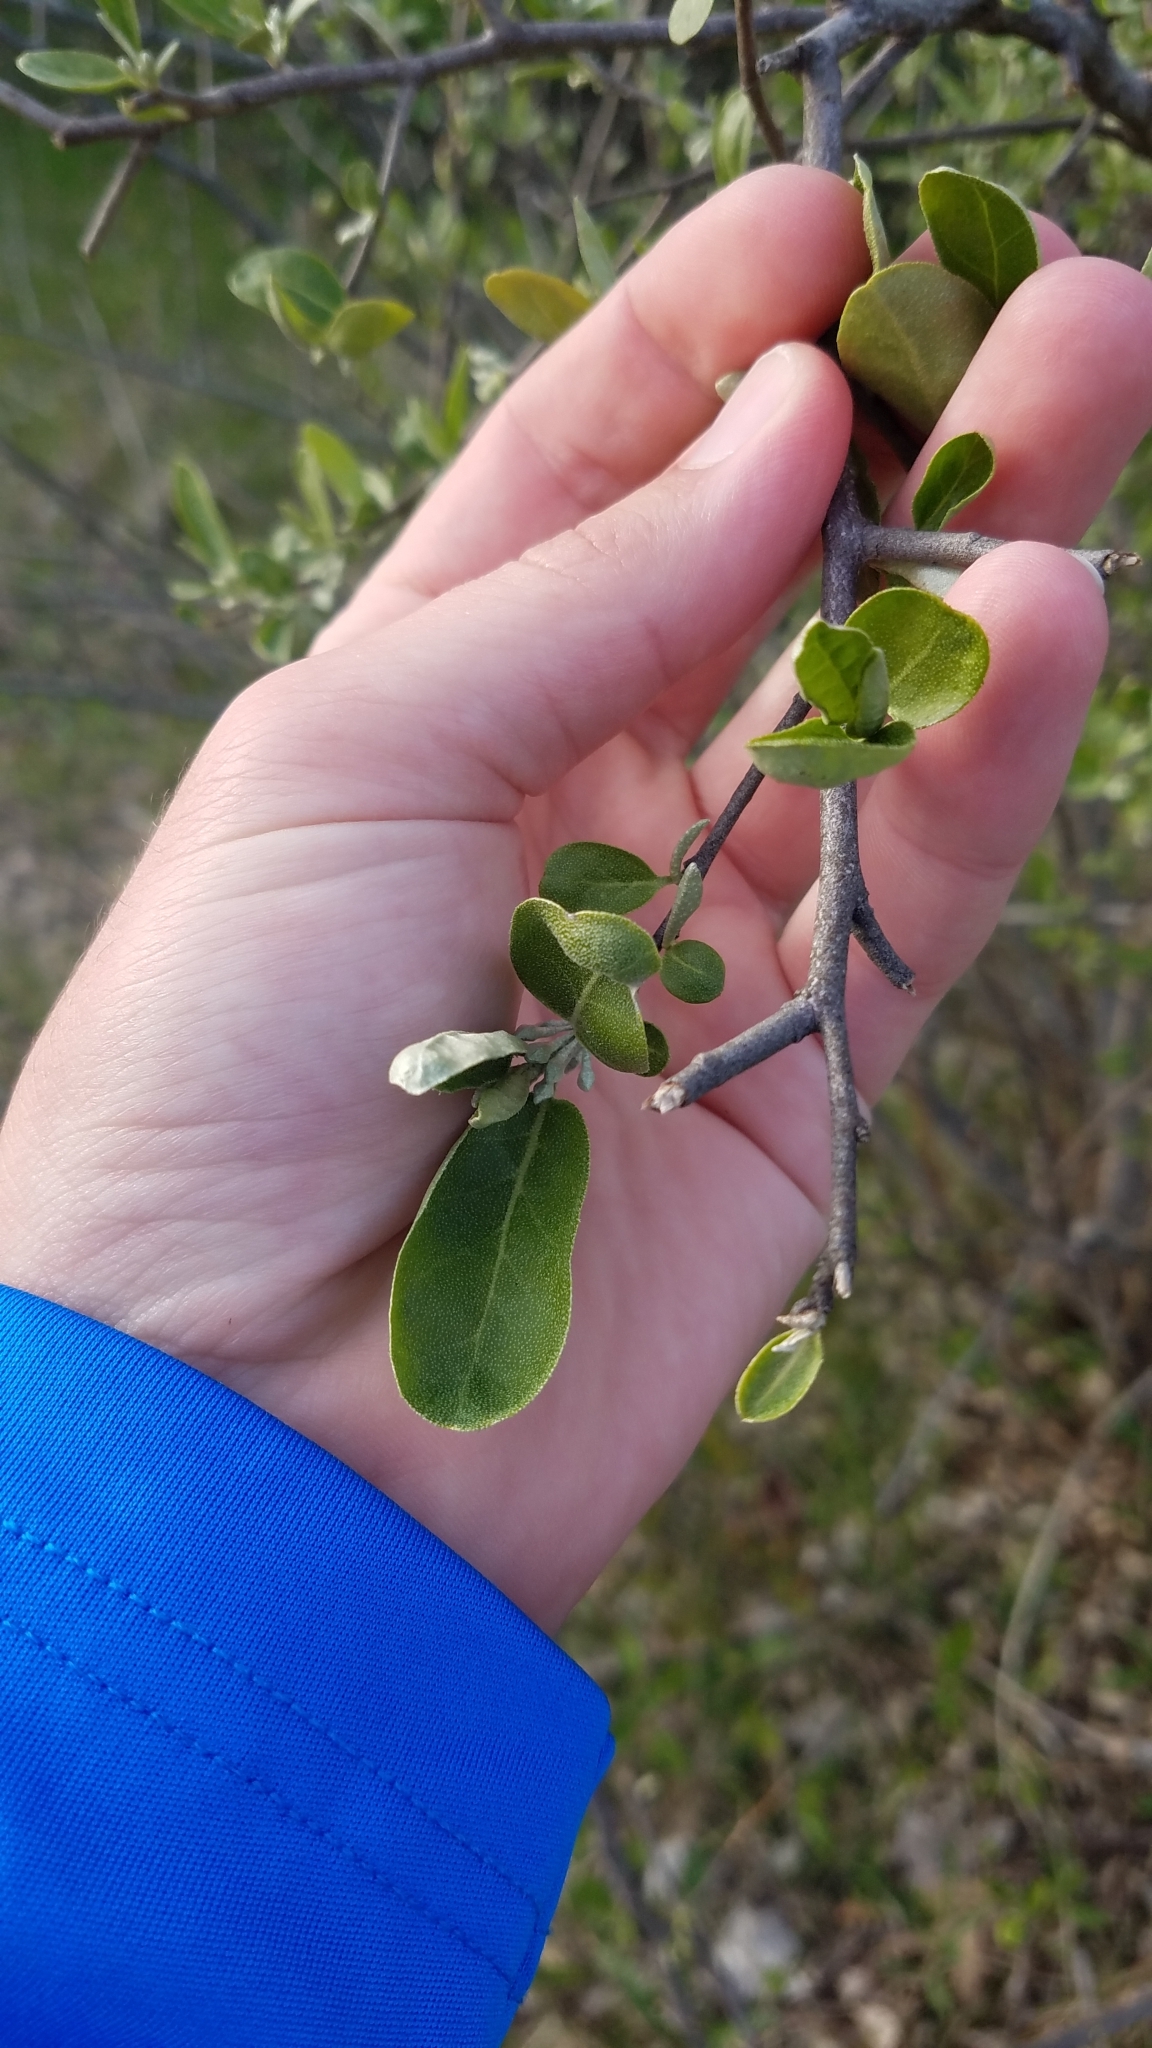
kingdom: Plantae
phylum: Tracheophyta
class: Magnoliopsida
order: Rosales
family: Elaeagnaceae
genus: Elaeagnus
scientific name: Elaeagnus umbellata
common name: Autumn olive
